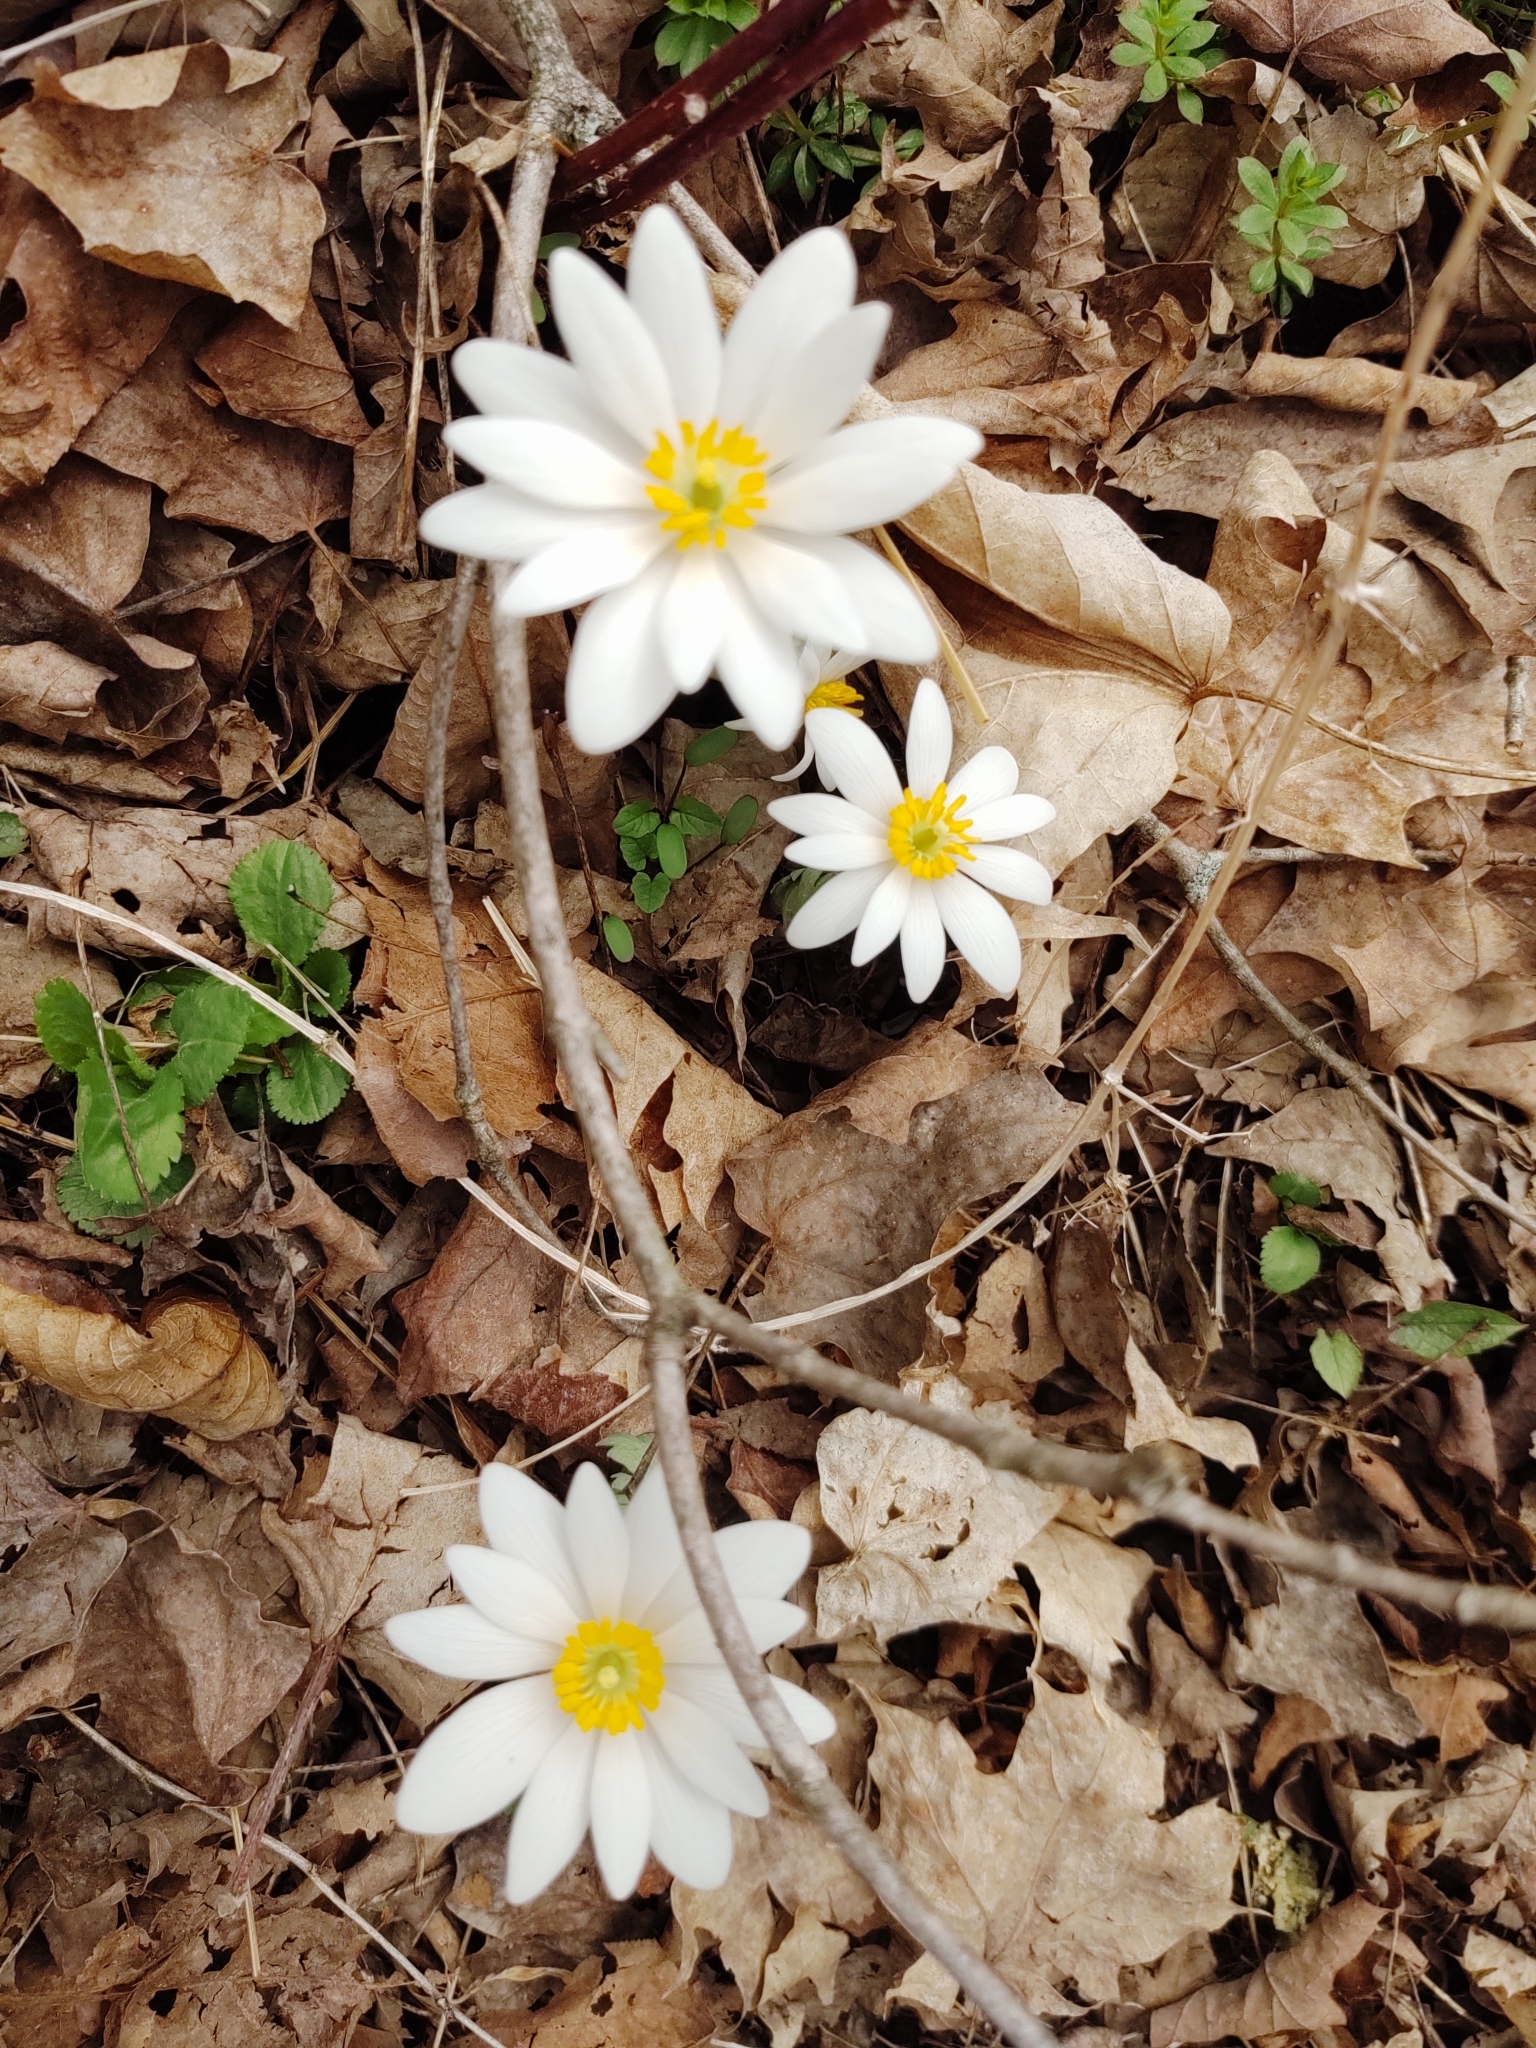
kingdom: Plantae
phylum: Tracheophyta
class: Magnoliopsida
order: Ranunculales
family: Papaveraceae
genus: Sanguinaria
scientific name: Sanguinaria canadensis
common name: Bloodroot
